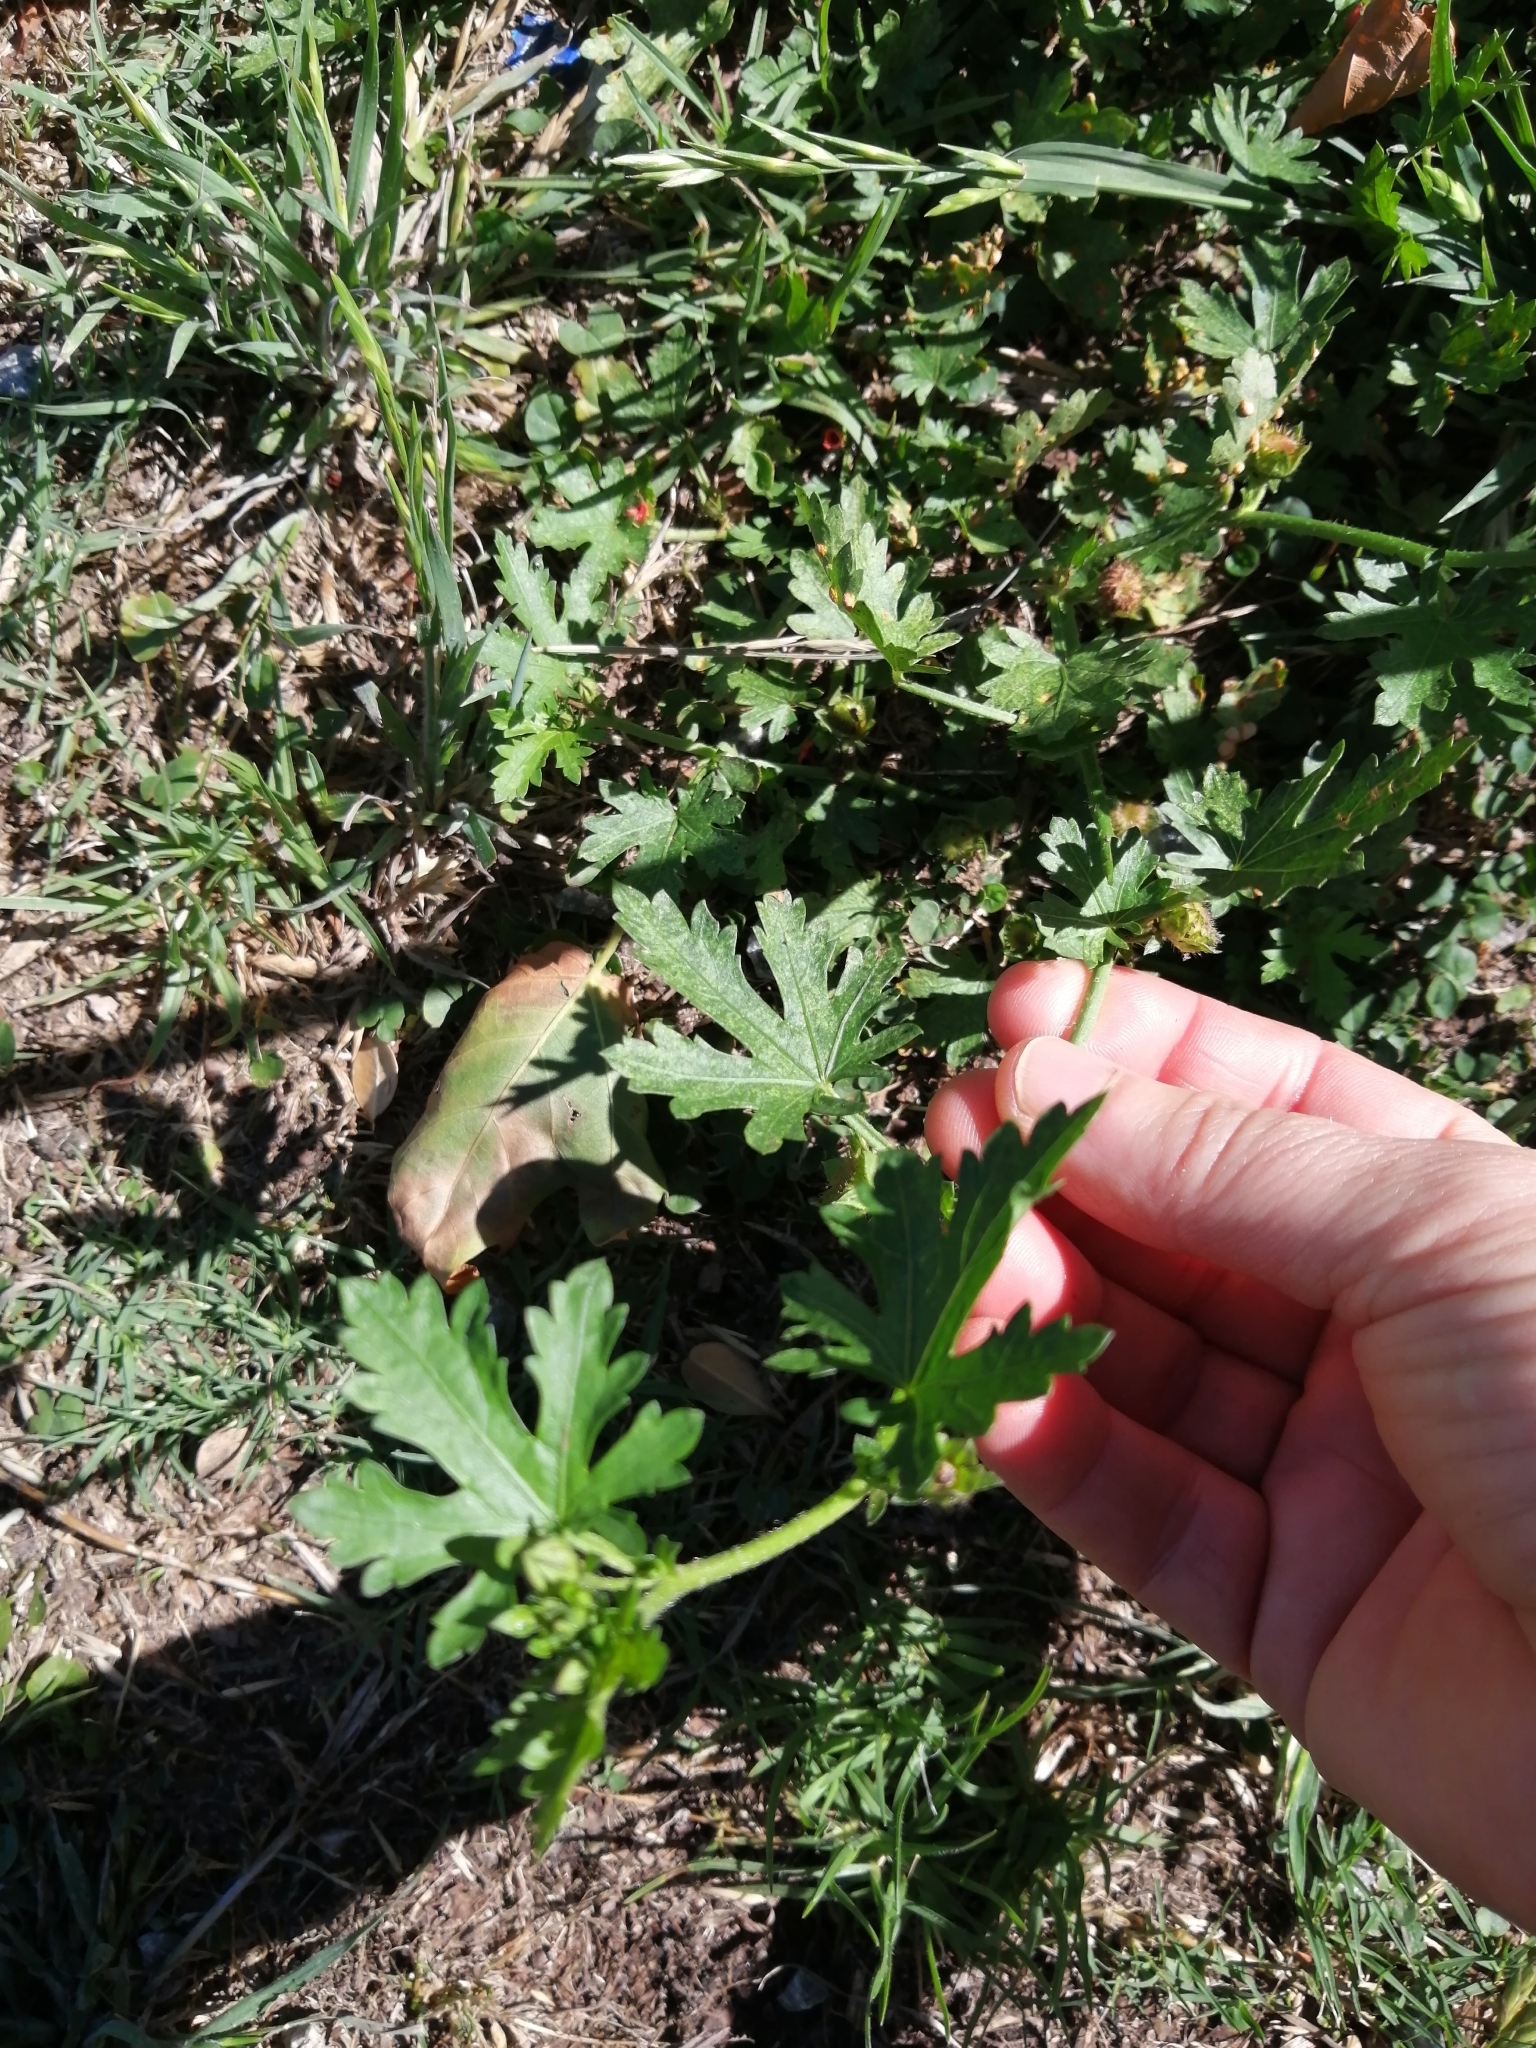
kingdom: Plantae
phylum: Tracheophyta
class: Magnoliopsida
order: Malvales
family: Malvaceae
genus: Modiola
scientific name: Modiola caroliniana
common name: Carolina bristlemallow
